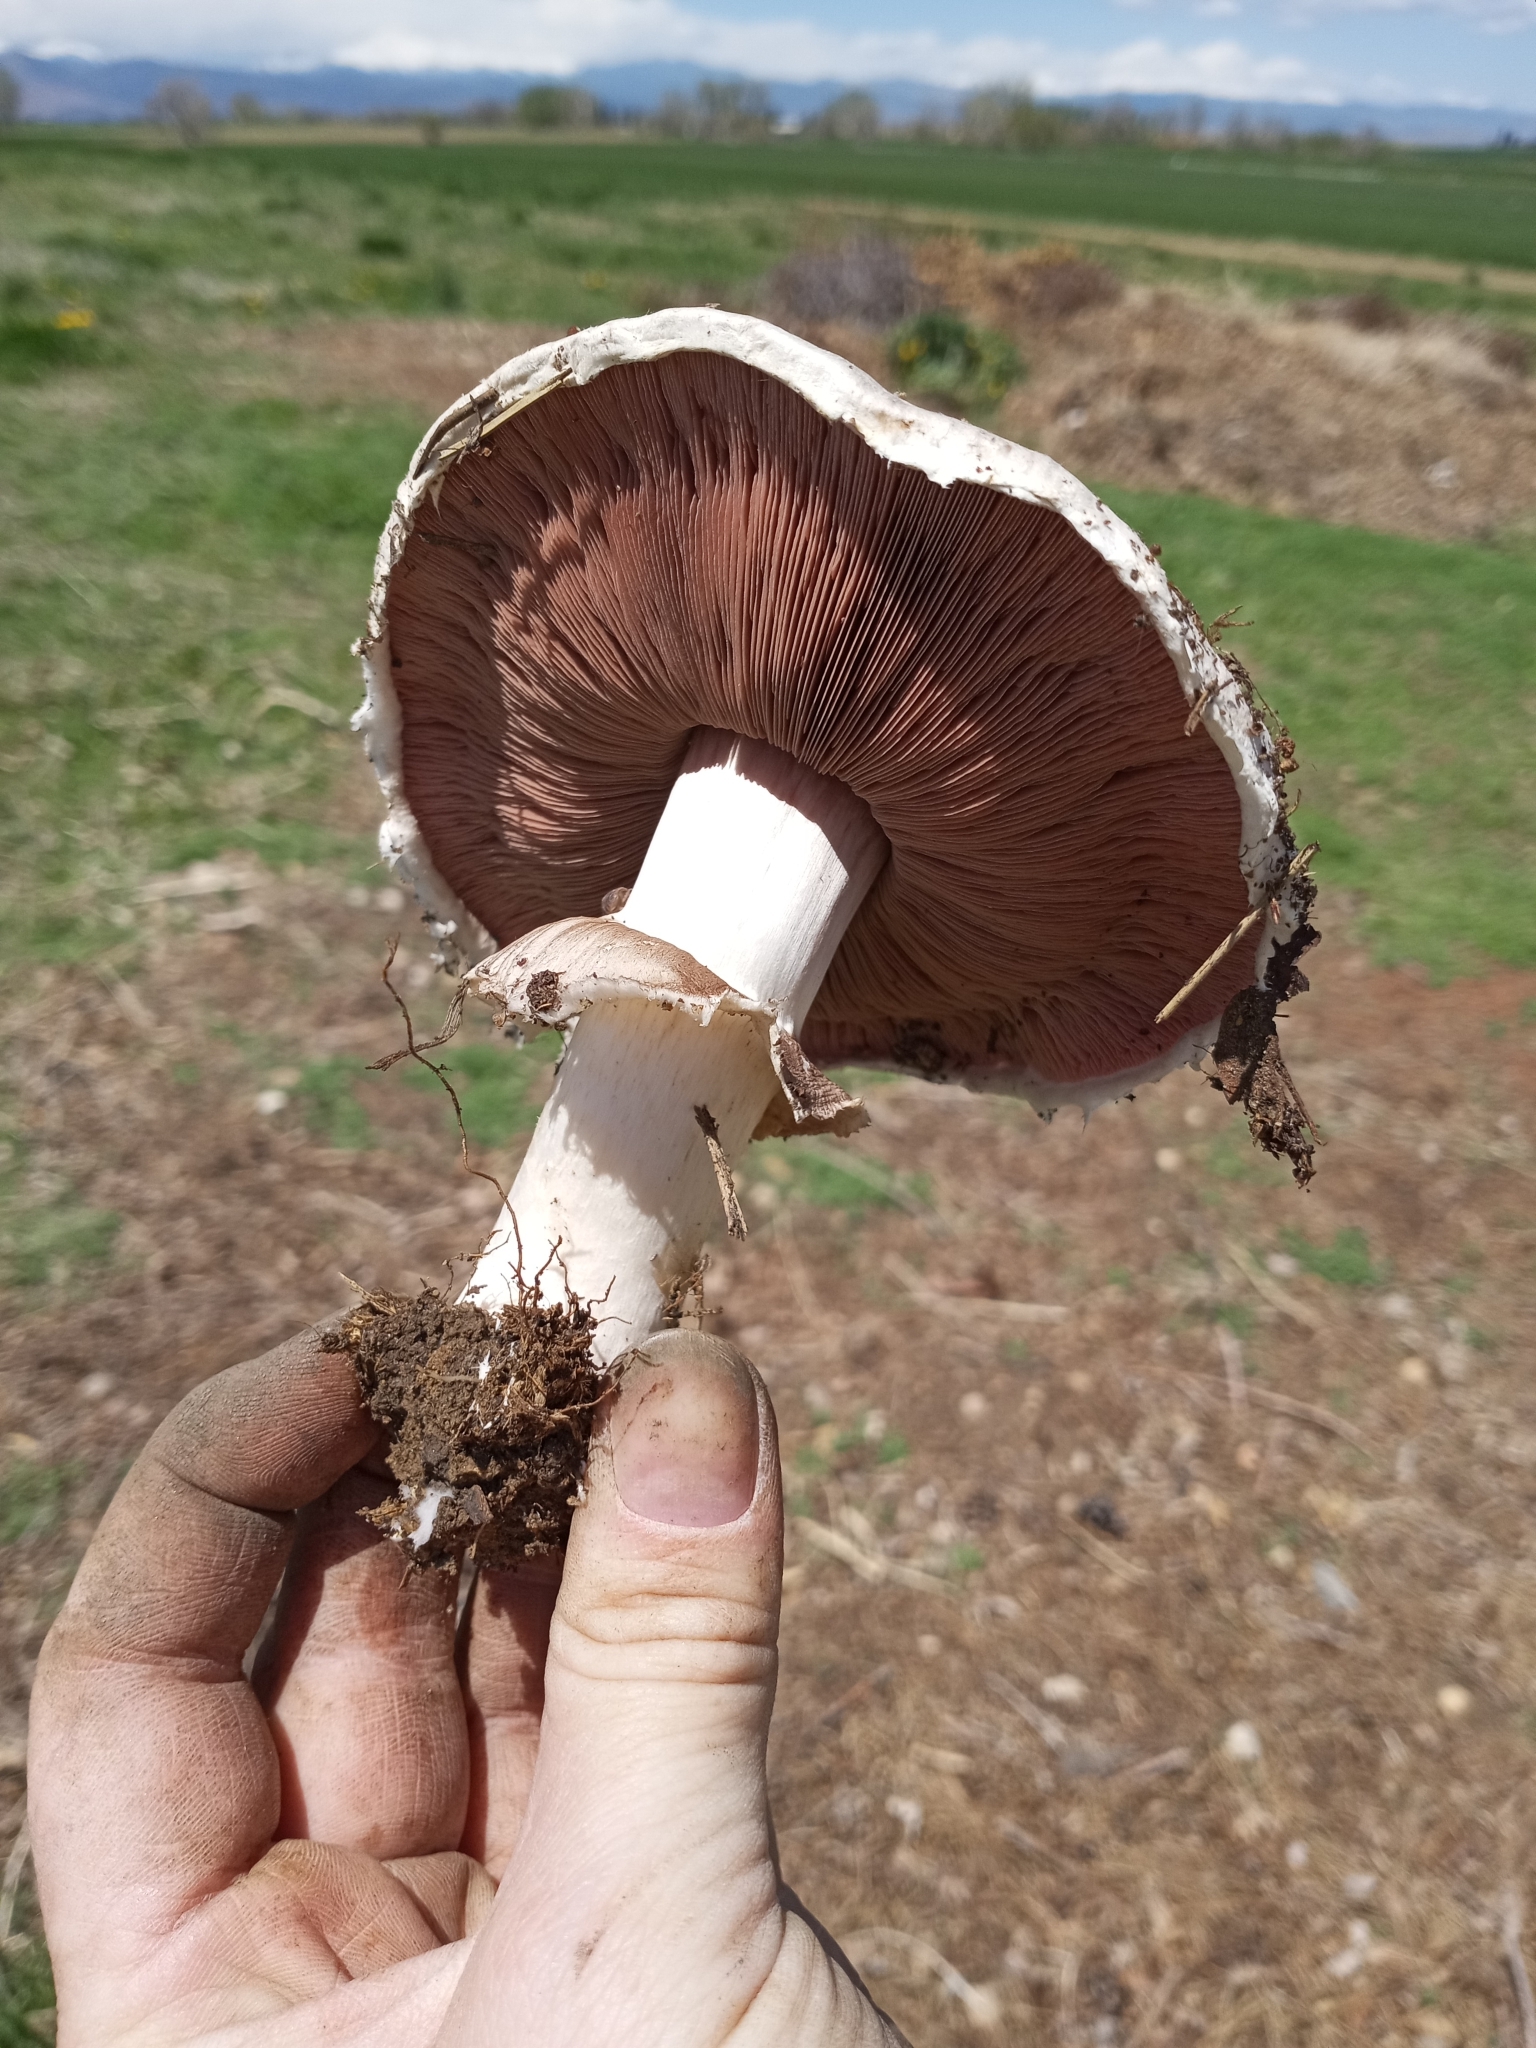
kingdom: Fungi
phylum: Basidiomycota
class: Agaricomycetes
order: Agaricales
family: Agaricaceae
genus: Agaricus
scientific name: Agaricus campestris
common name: Field mushroom
